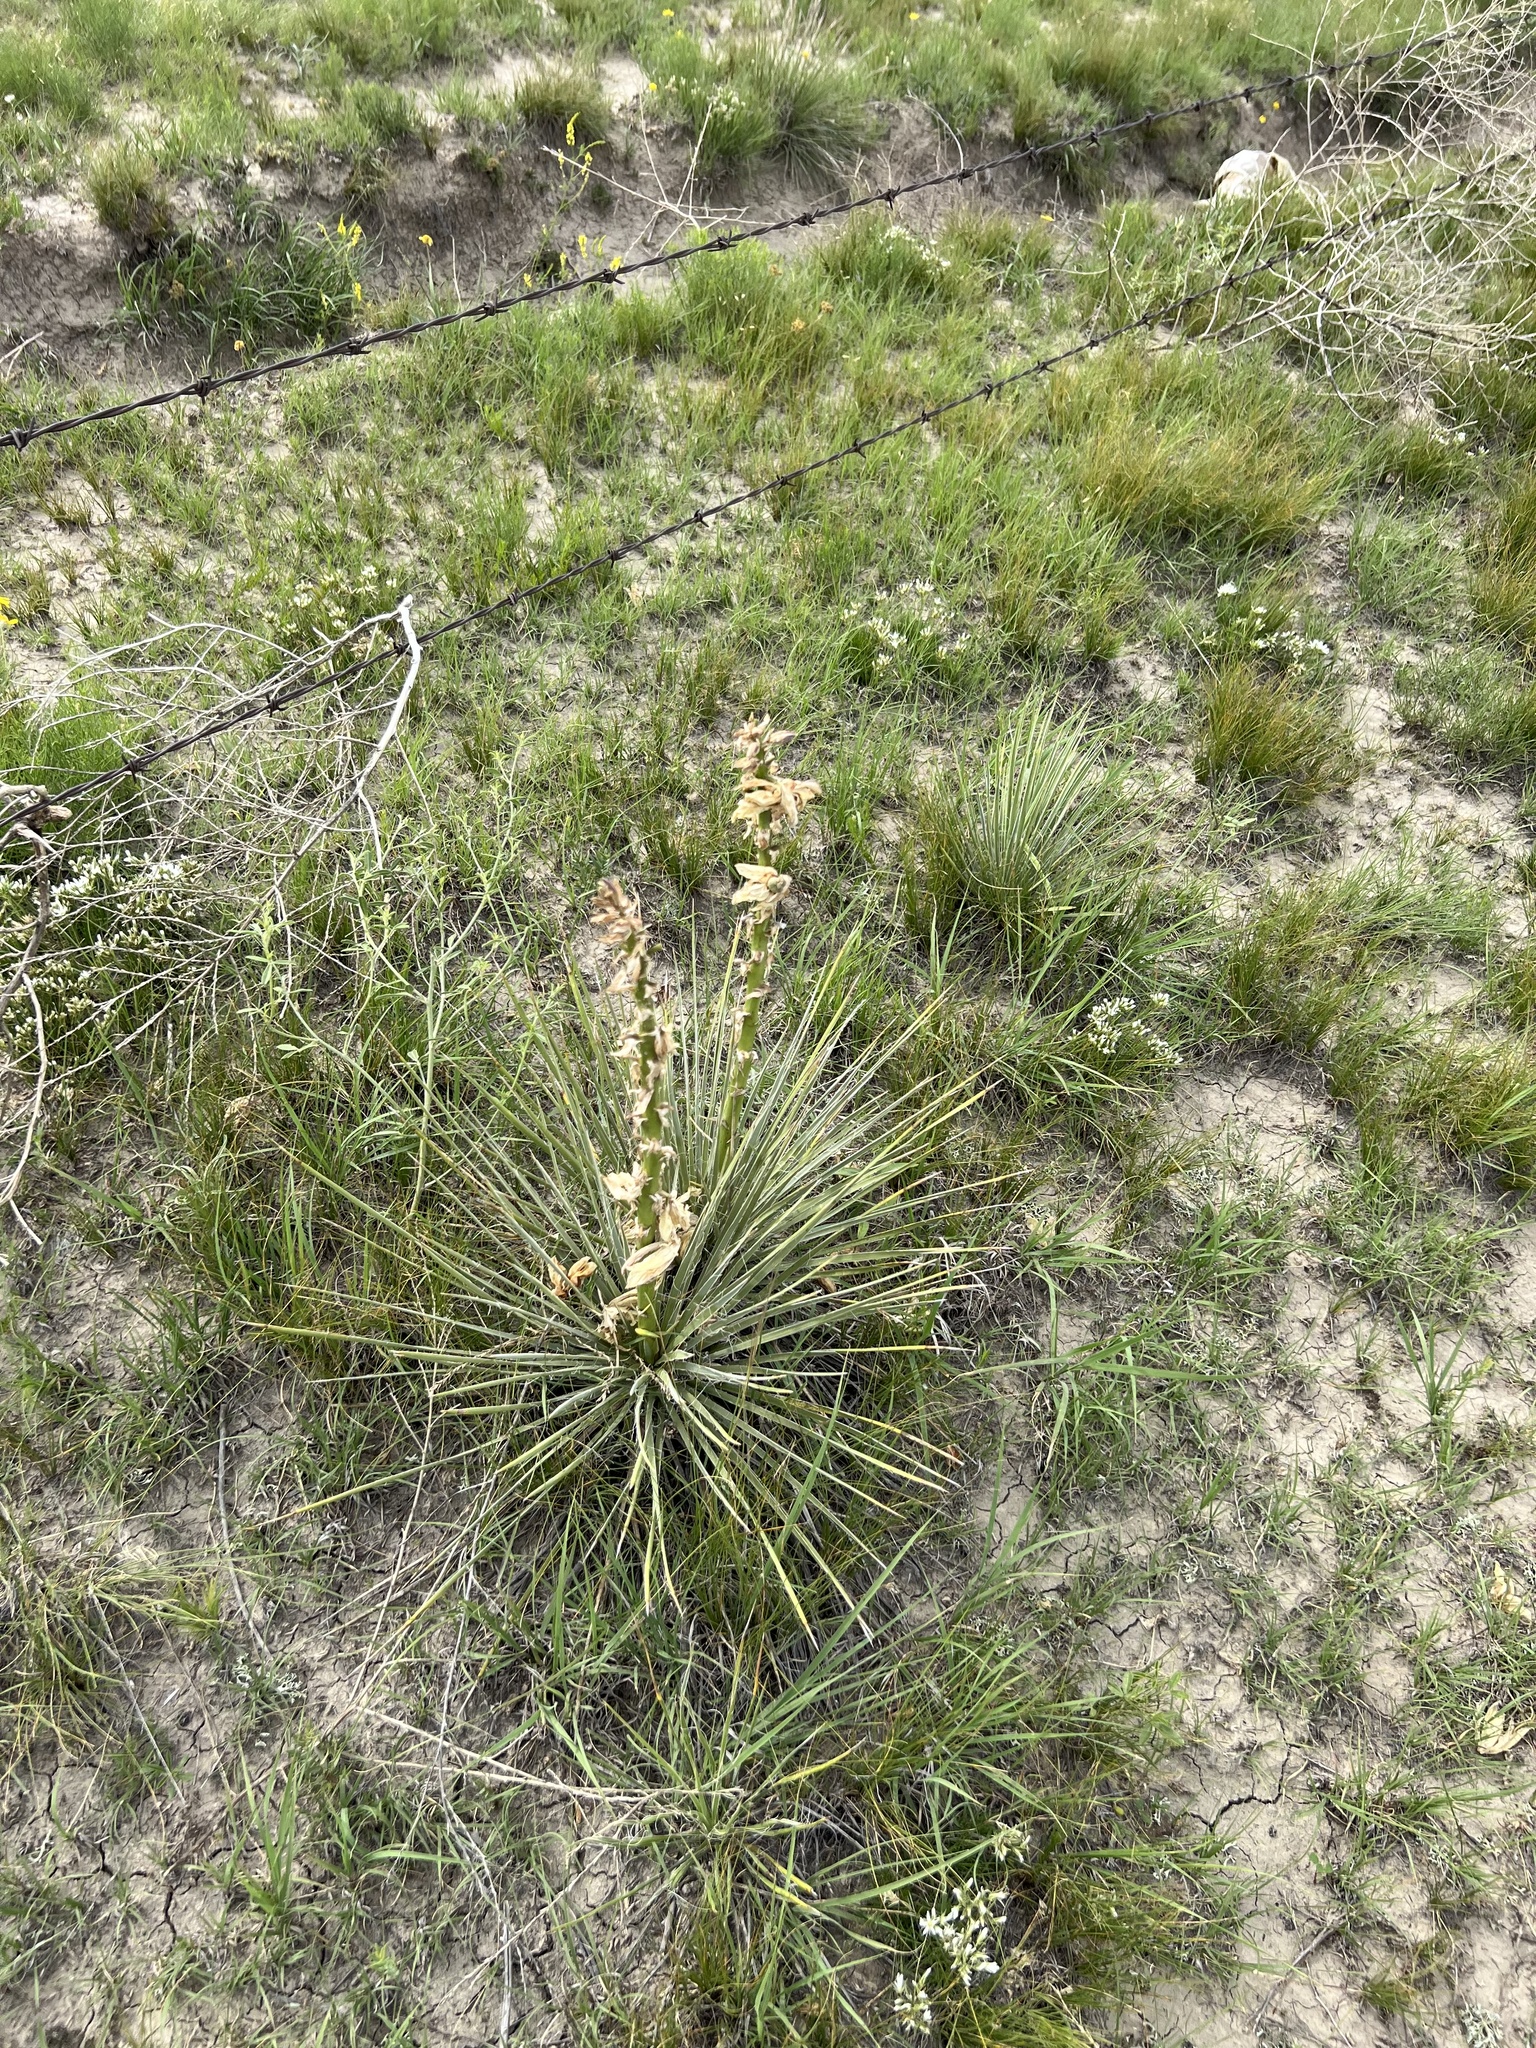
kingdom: Plantae
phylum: Tracheophyta
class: Liliopsida
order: Asparagales
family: Asparagaceae
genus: Yucca
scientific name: Yucca glauca
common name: Great plains yucca
